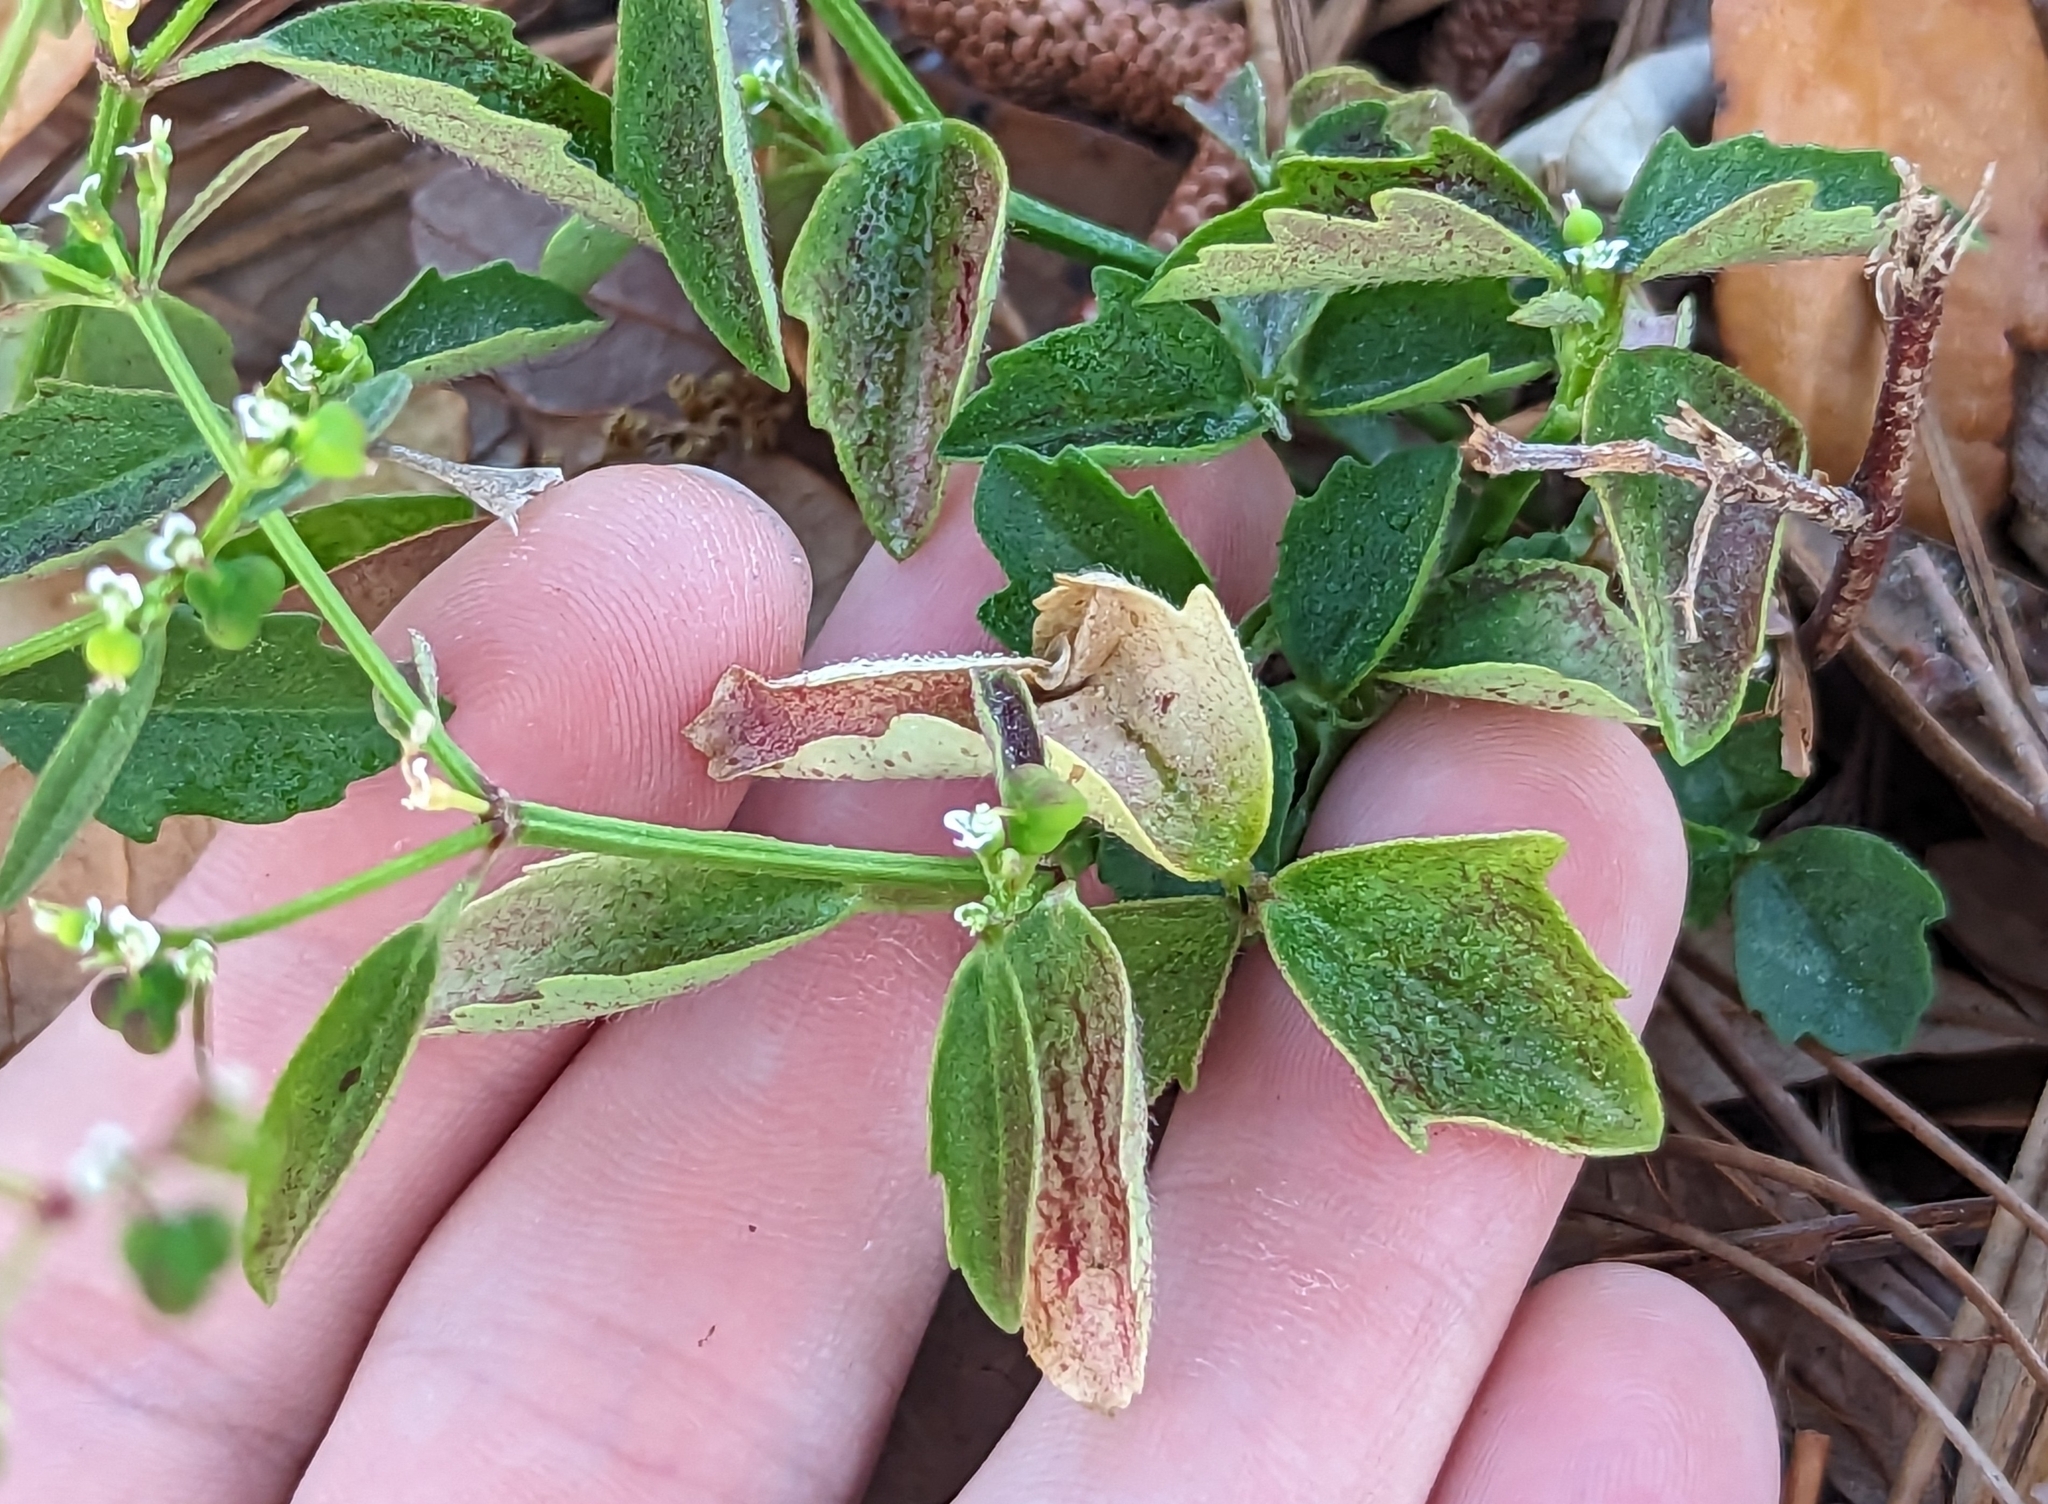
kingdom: Plantae
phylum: Tracheophyta
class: Magnoliopsida
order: Malpighiales
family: Euphorbiaceae
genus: Euphorbia
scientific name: Euphorbia graminea
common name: Grassleaf spurge
